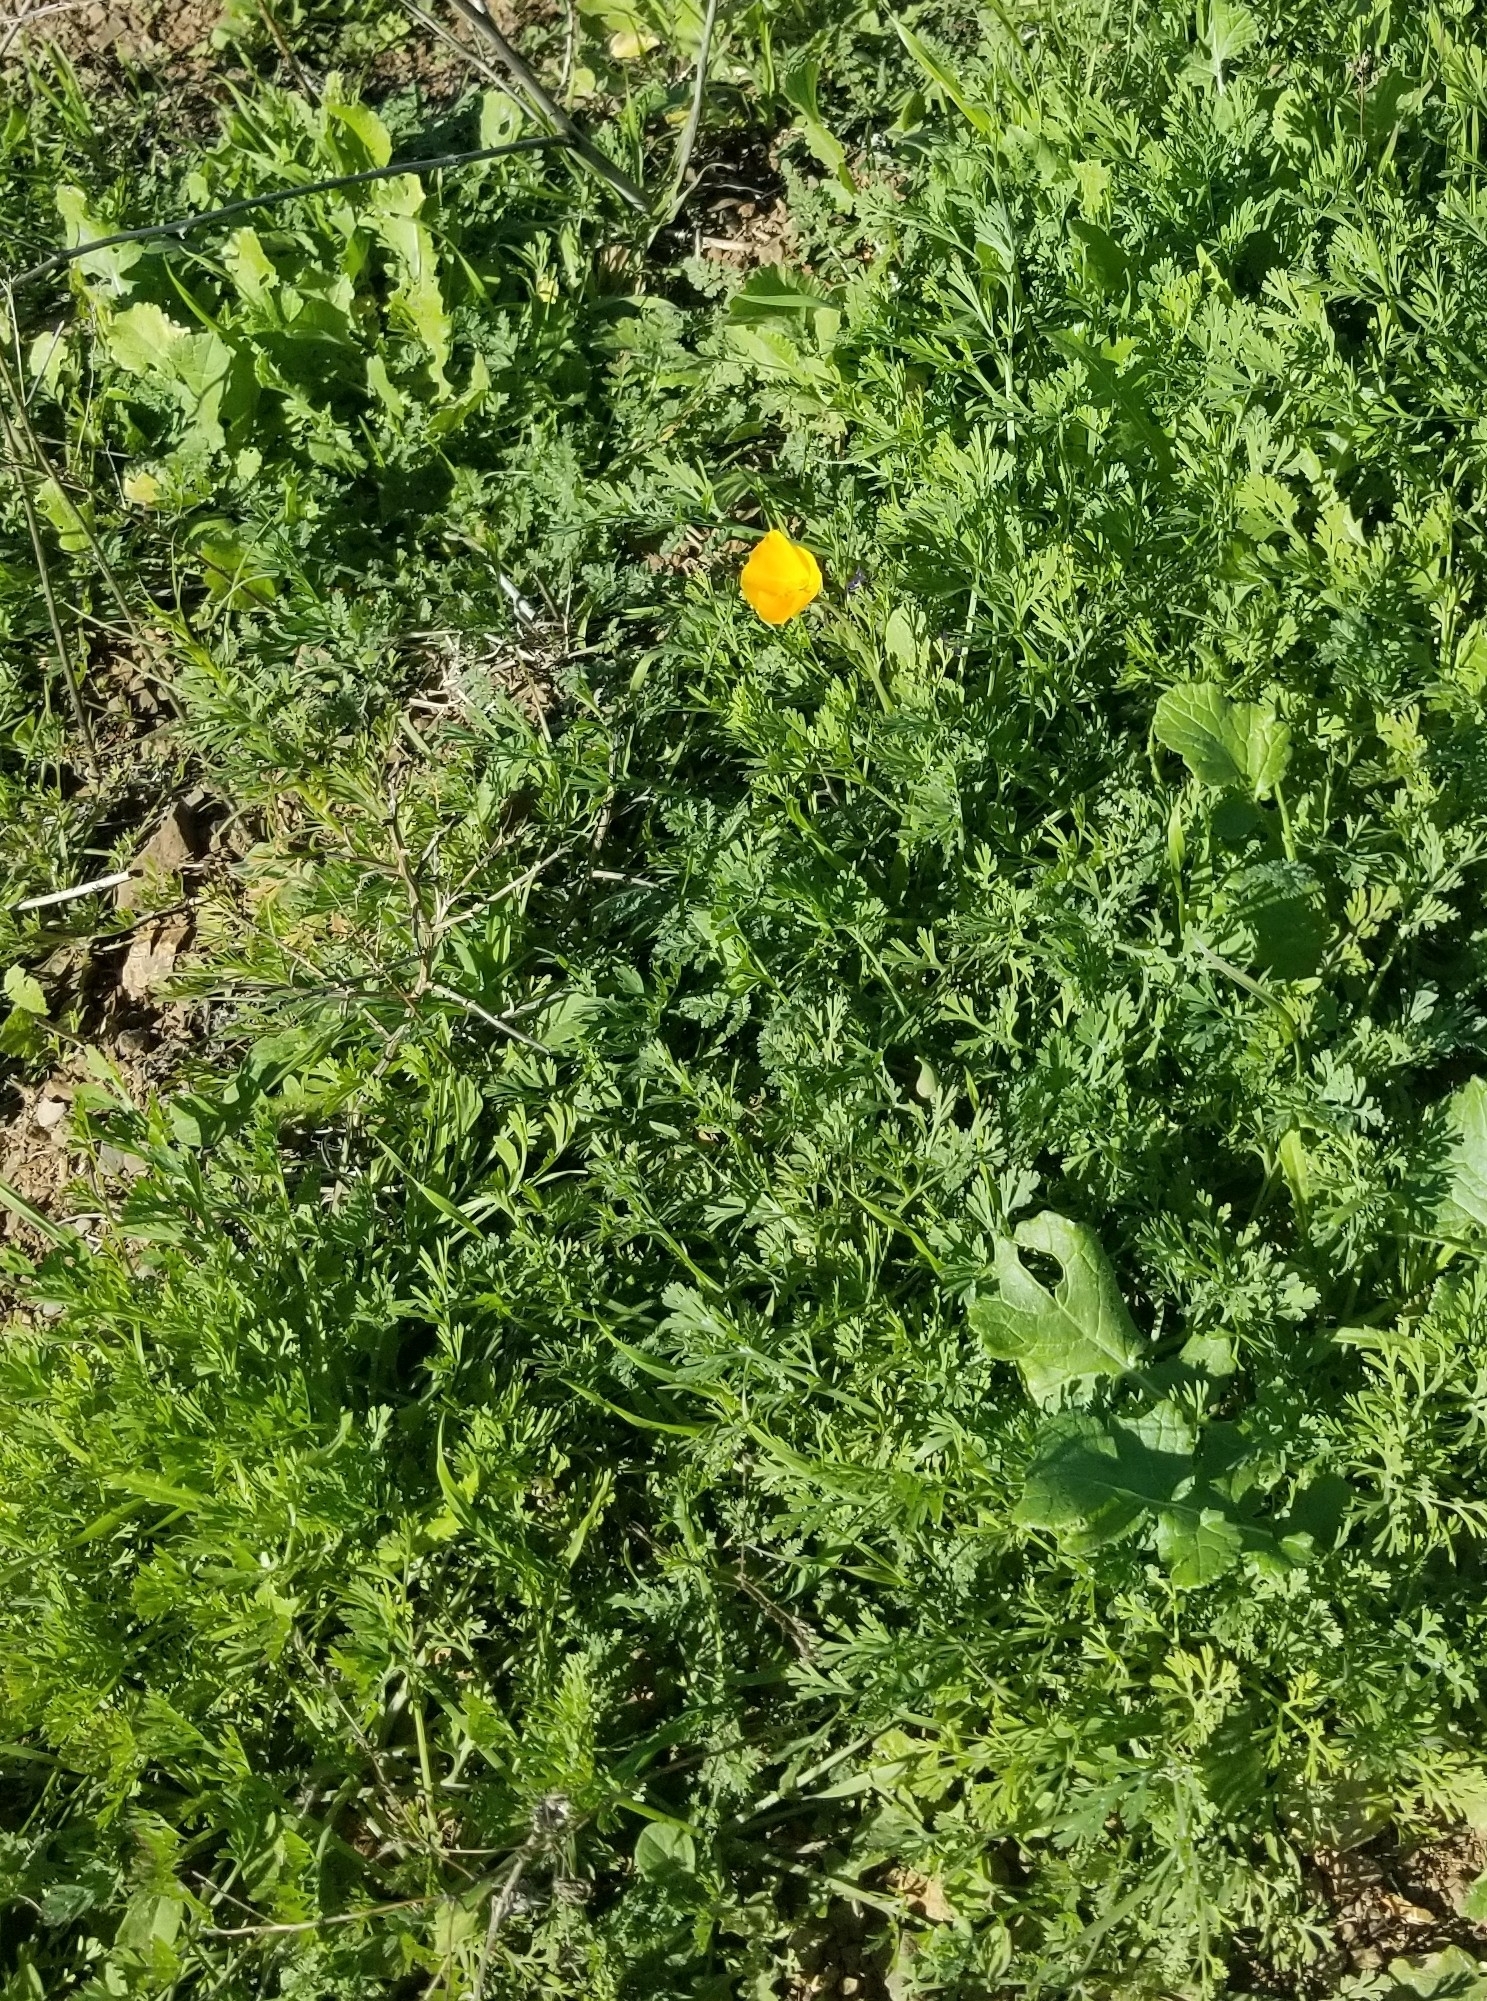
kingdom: Plantae
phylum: Tracheophyta
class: Magnoliopsida
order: Ranunculales
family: Papaveraceae
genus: Eschscholzia
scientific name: Eschscholzia californica
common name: California poppy
